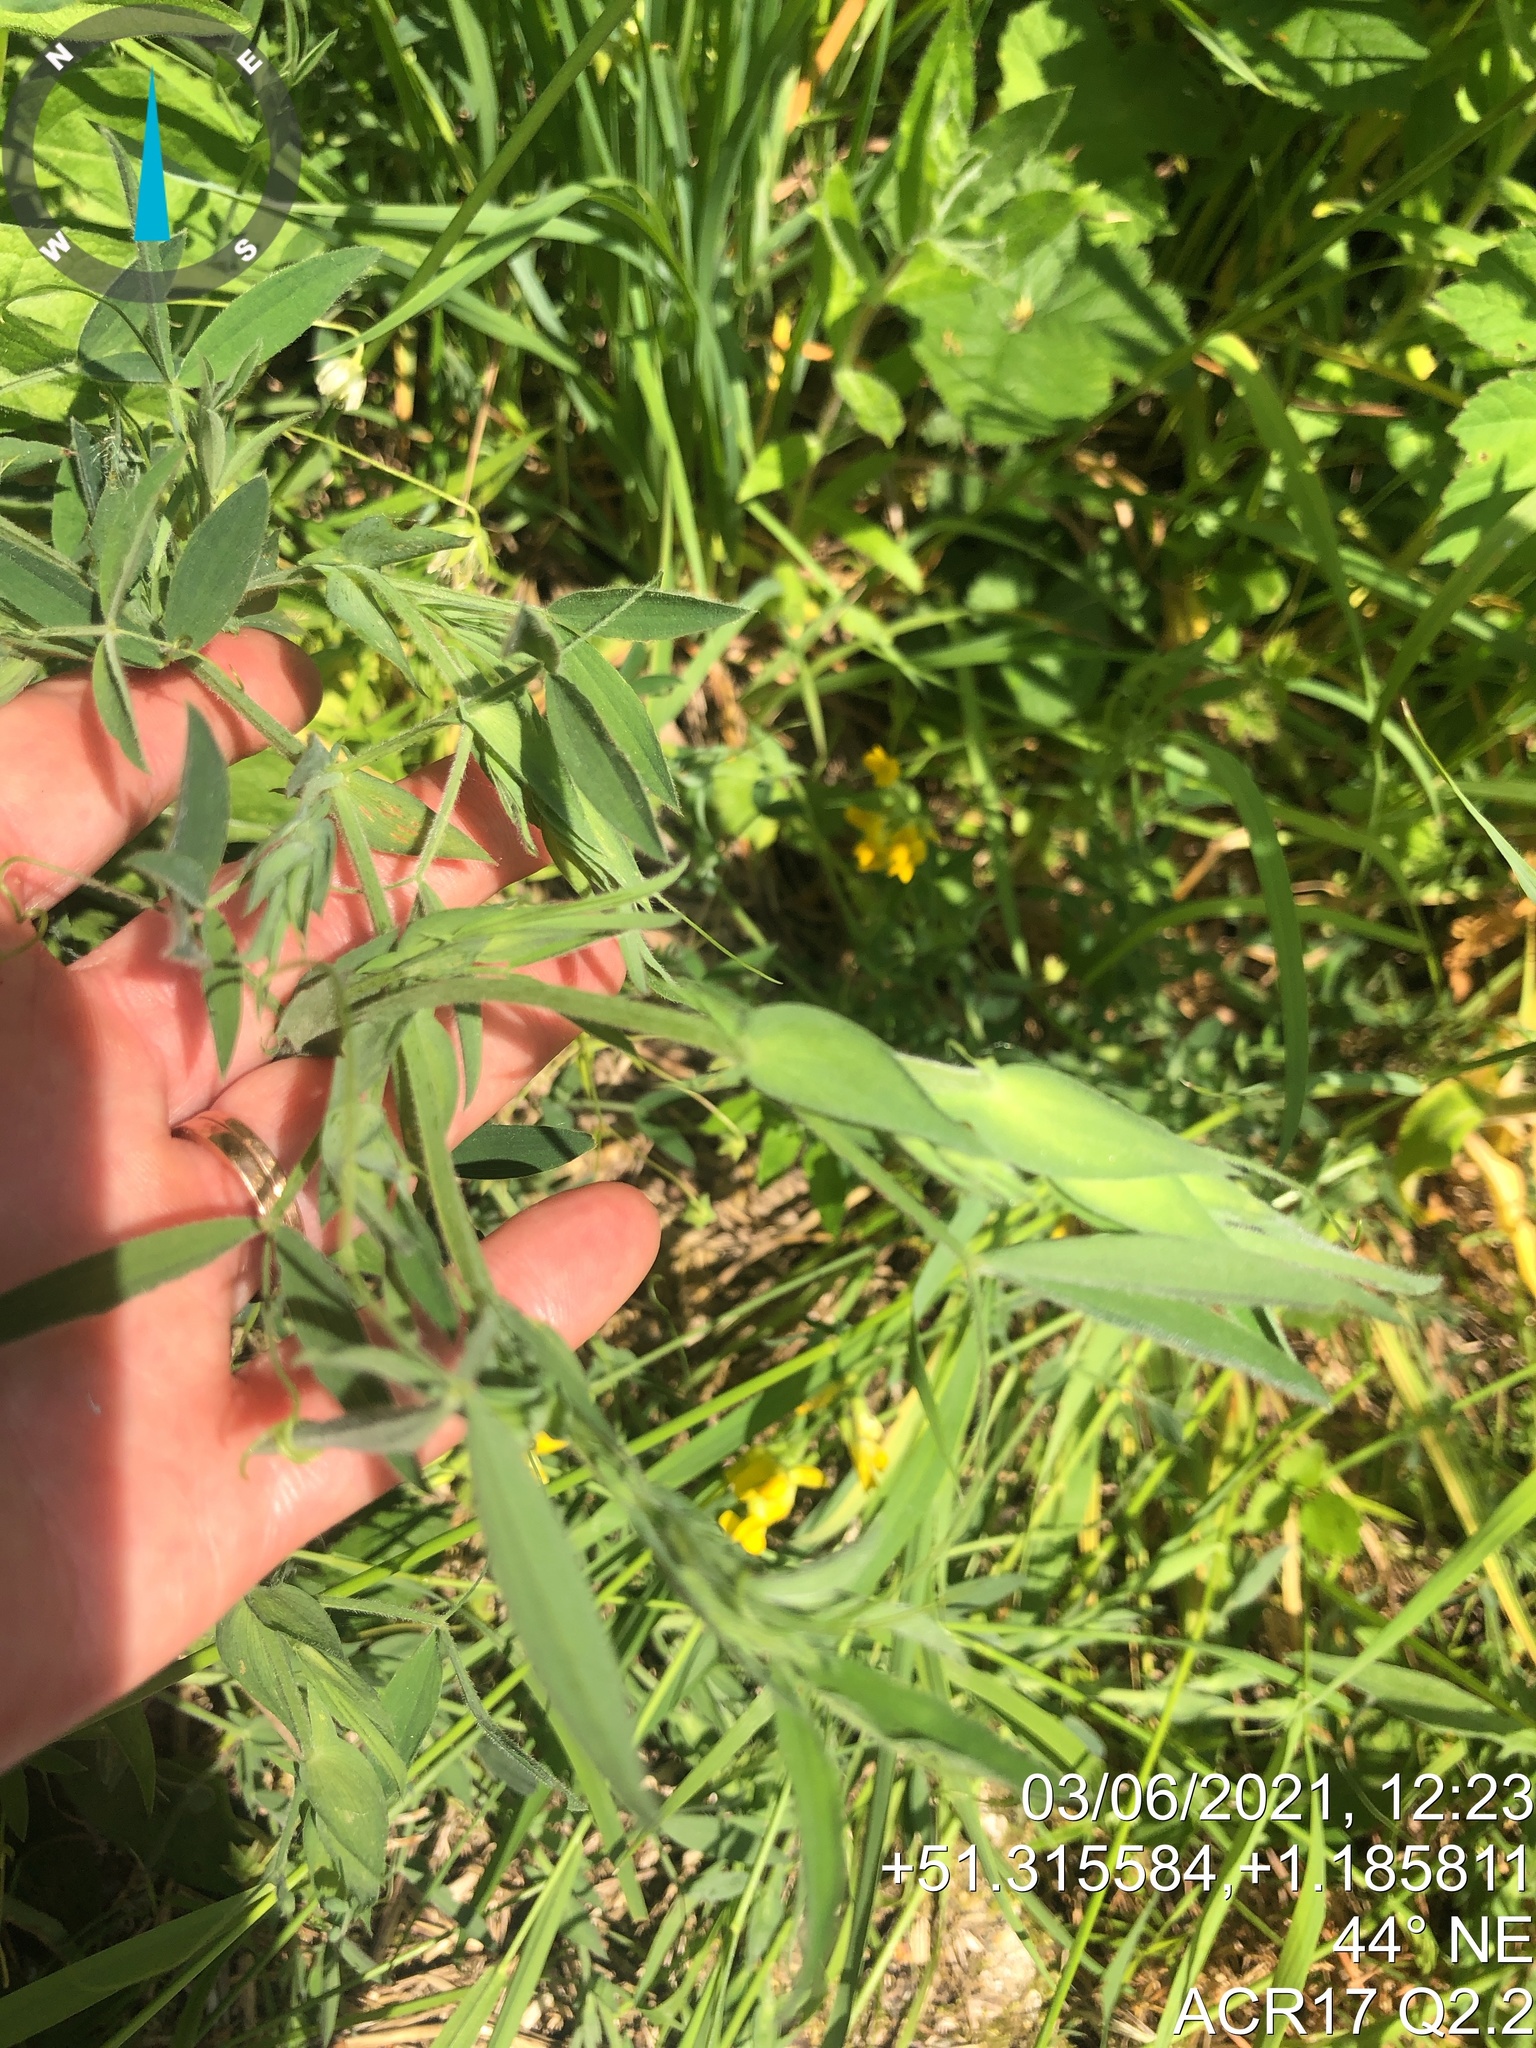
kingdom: Plantae
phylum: Tracheophyta
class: Magnoliopsida
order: Fabales
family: Fabaceae
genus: Lathyrus
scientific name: Lathyrus pratensis
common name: Meadow vetchling
